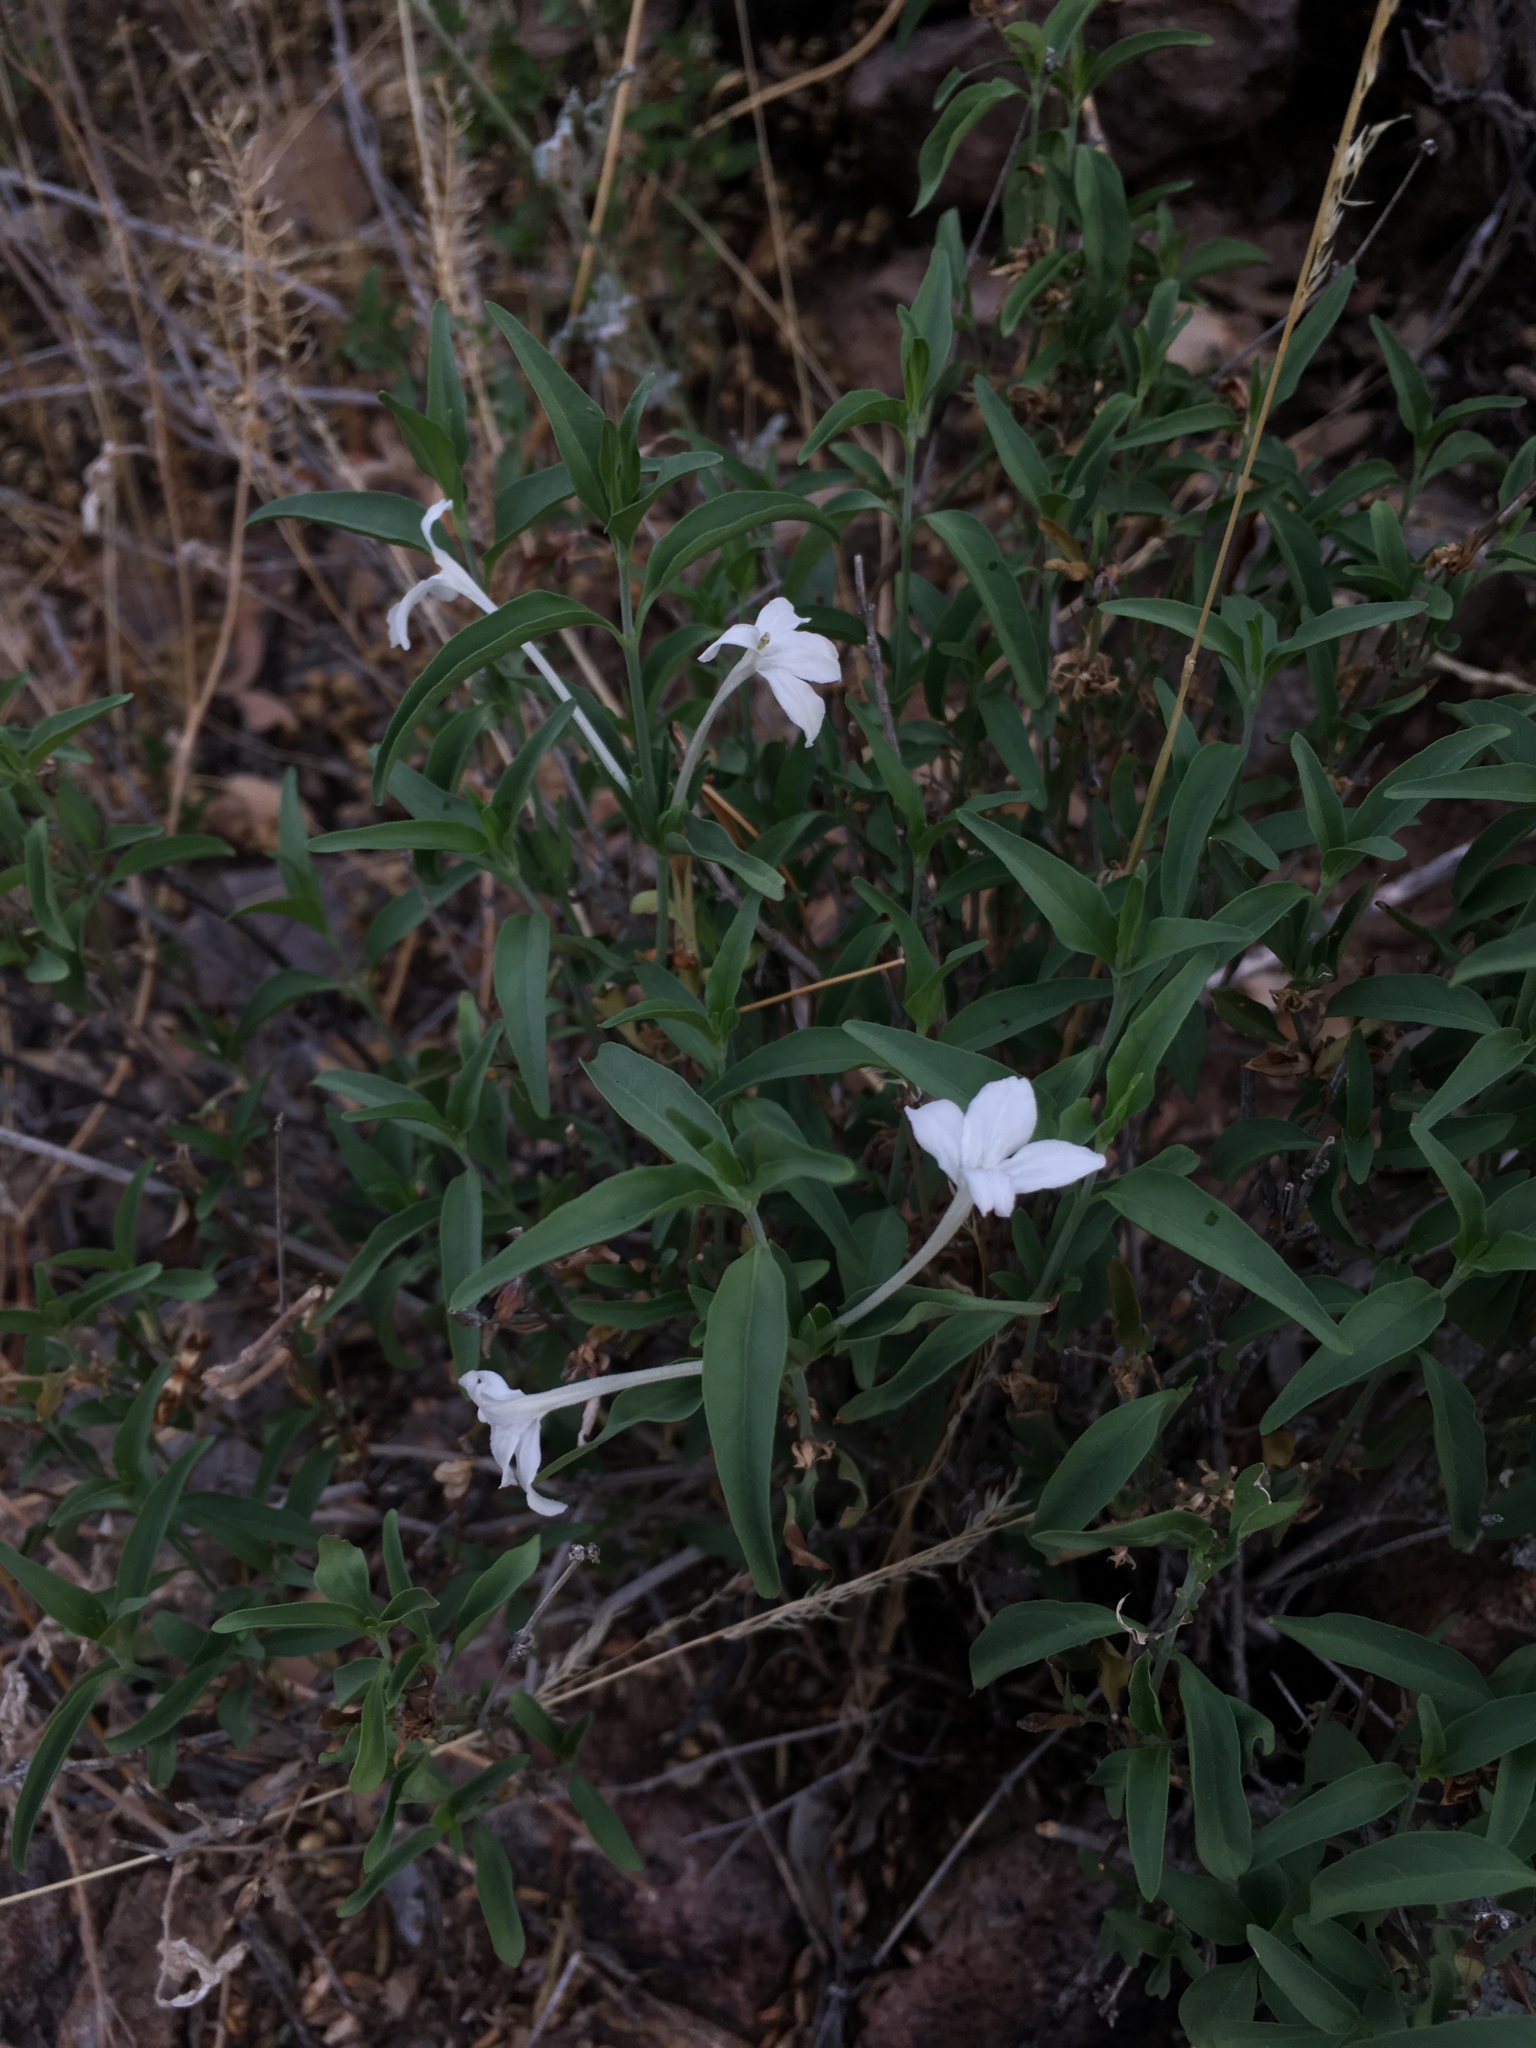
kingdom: Plantae
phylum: Tracheophyta
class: Magnoliopsida
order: Lamiales
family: Acanthaceae
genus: Justicia
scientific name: Justicia longii
